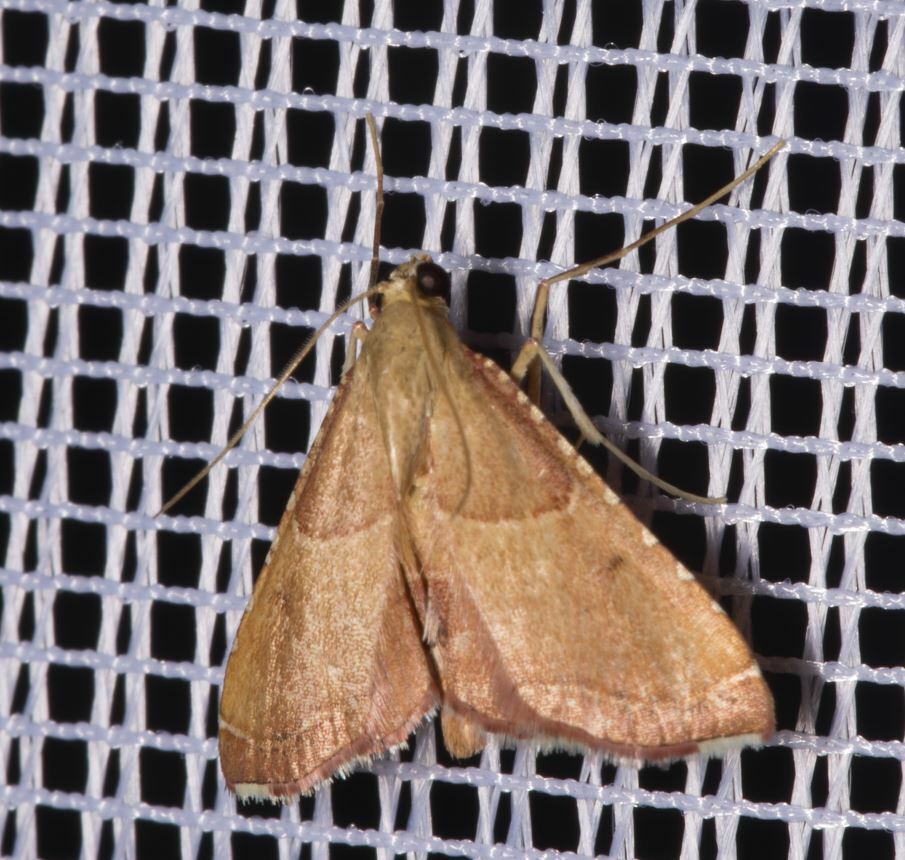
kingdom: Animalia
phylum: Arthropoda
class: Insecta
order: Lepidoptera
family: Pyralidae
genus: Endotricha
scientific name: Endotricha flammealis
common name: Rosy tabby
